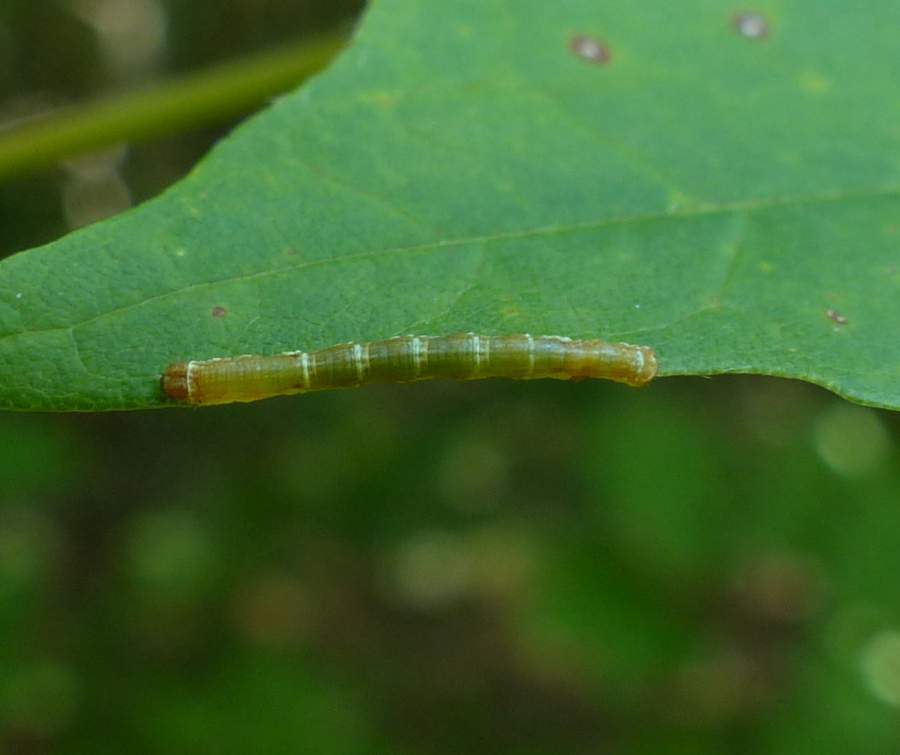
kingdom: Animalia
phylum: Arthropoda
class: Insecta
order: Lepidoptera
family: Geometridae
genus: Hypagyrtis
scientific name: Hypagyrtis unipunctata
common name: One-spotted variant
